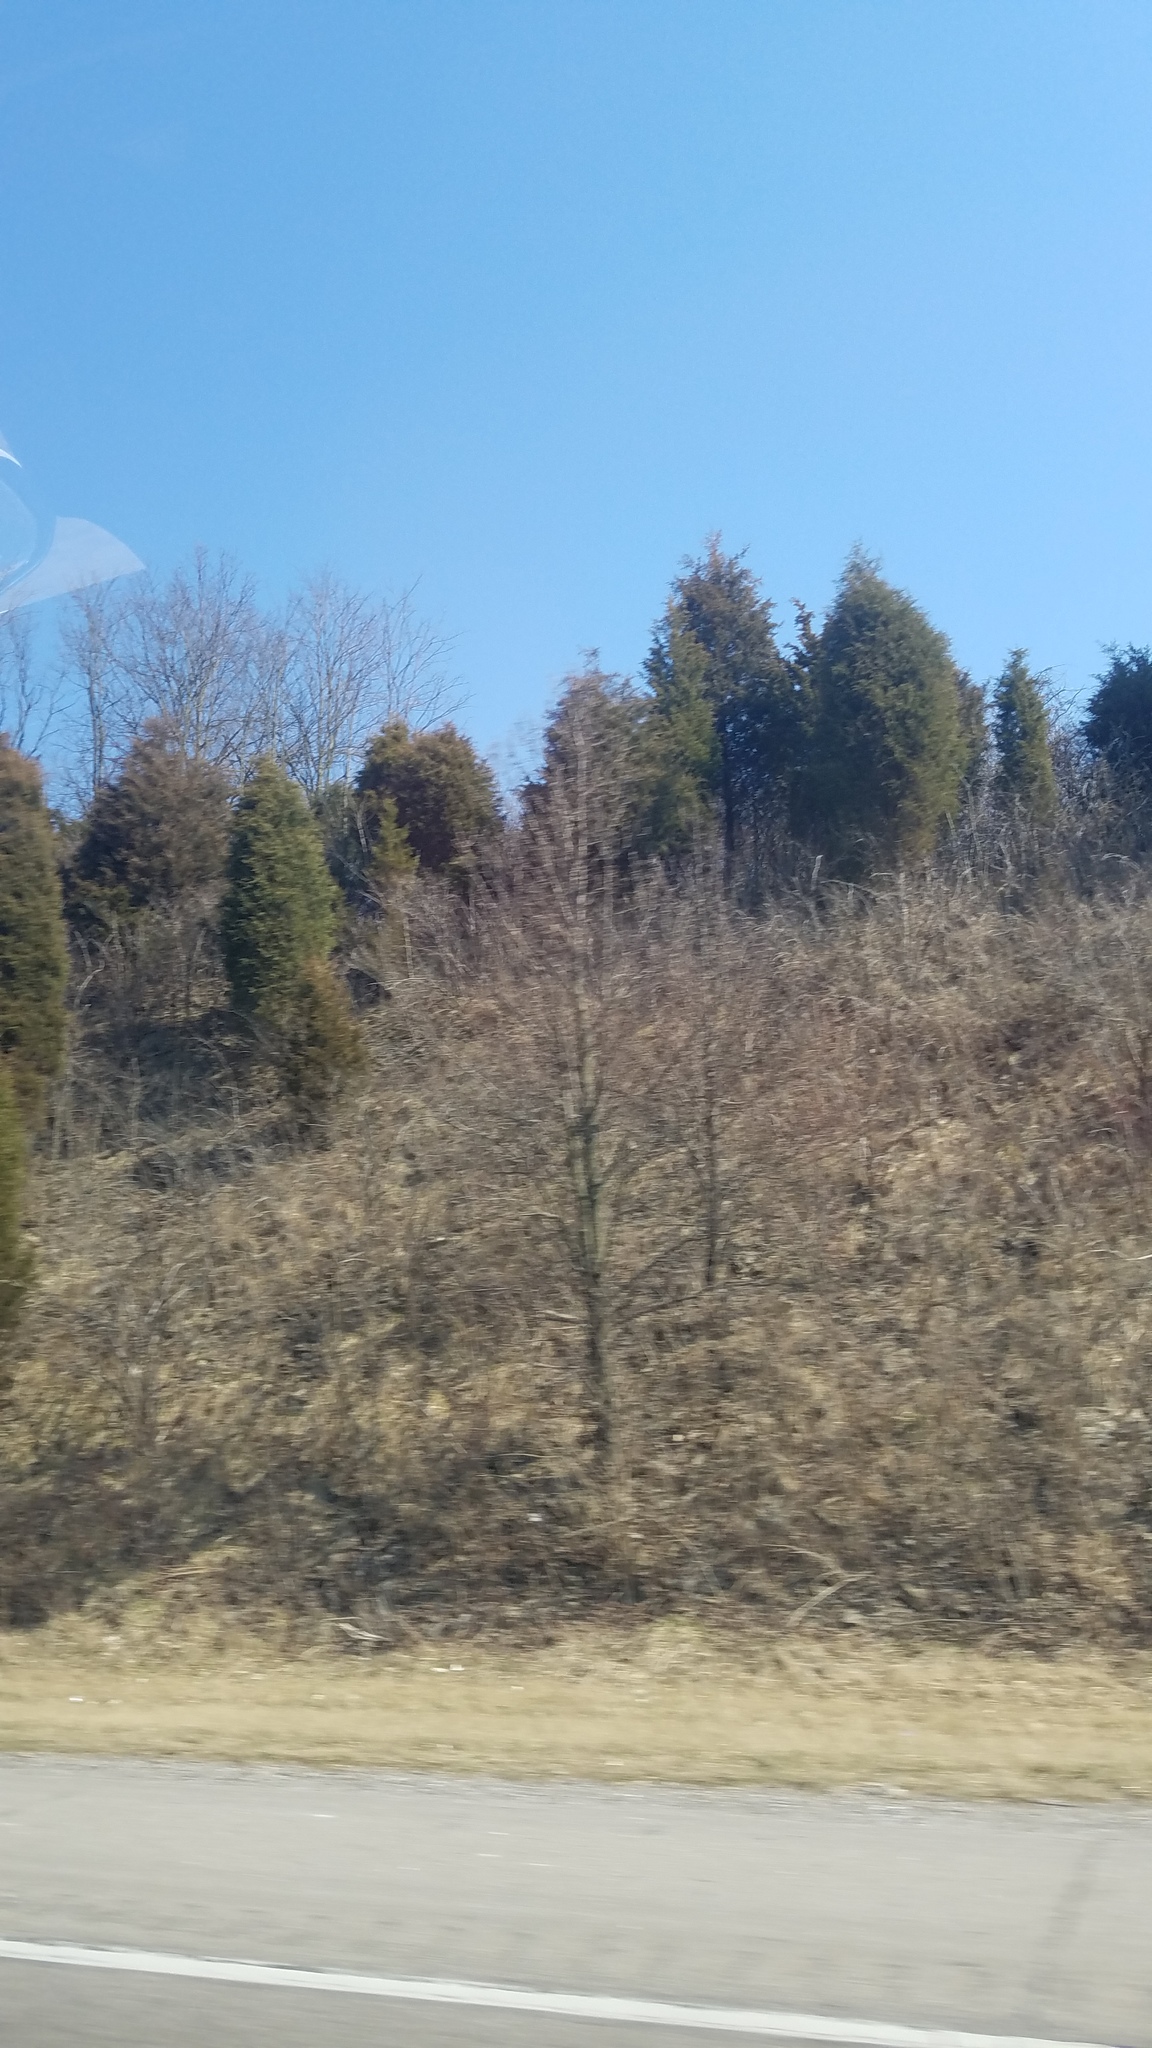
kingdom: Plantae
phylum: Tracheophyta
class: Pinopsida
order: Pinales
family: Cupressaceae
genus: Juniperus
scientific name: Juniperus virginiana
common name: Red juniper
